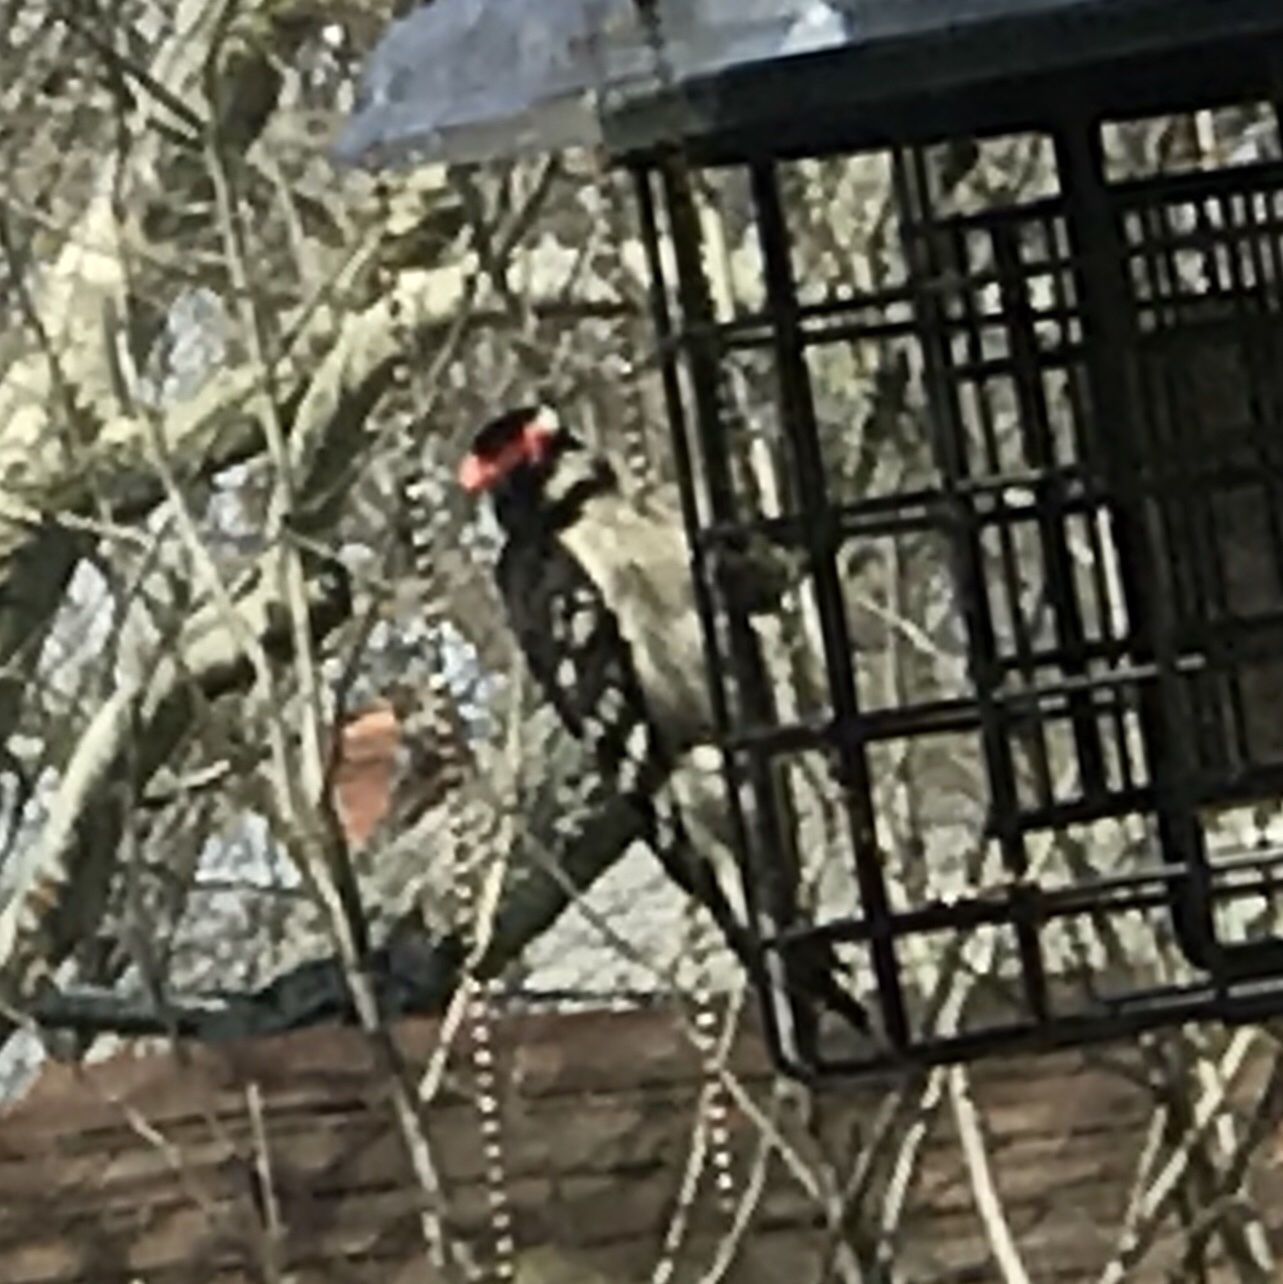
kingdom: Animalia
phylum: Chordata
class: Aves
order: Piciformes
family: Picidae
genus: Dryobates
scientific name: Dryobates pubescens
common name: Downy woodpecker
